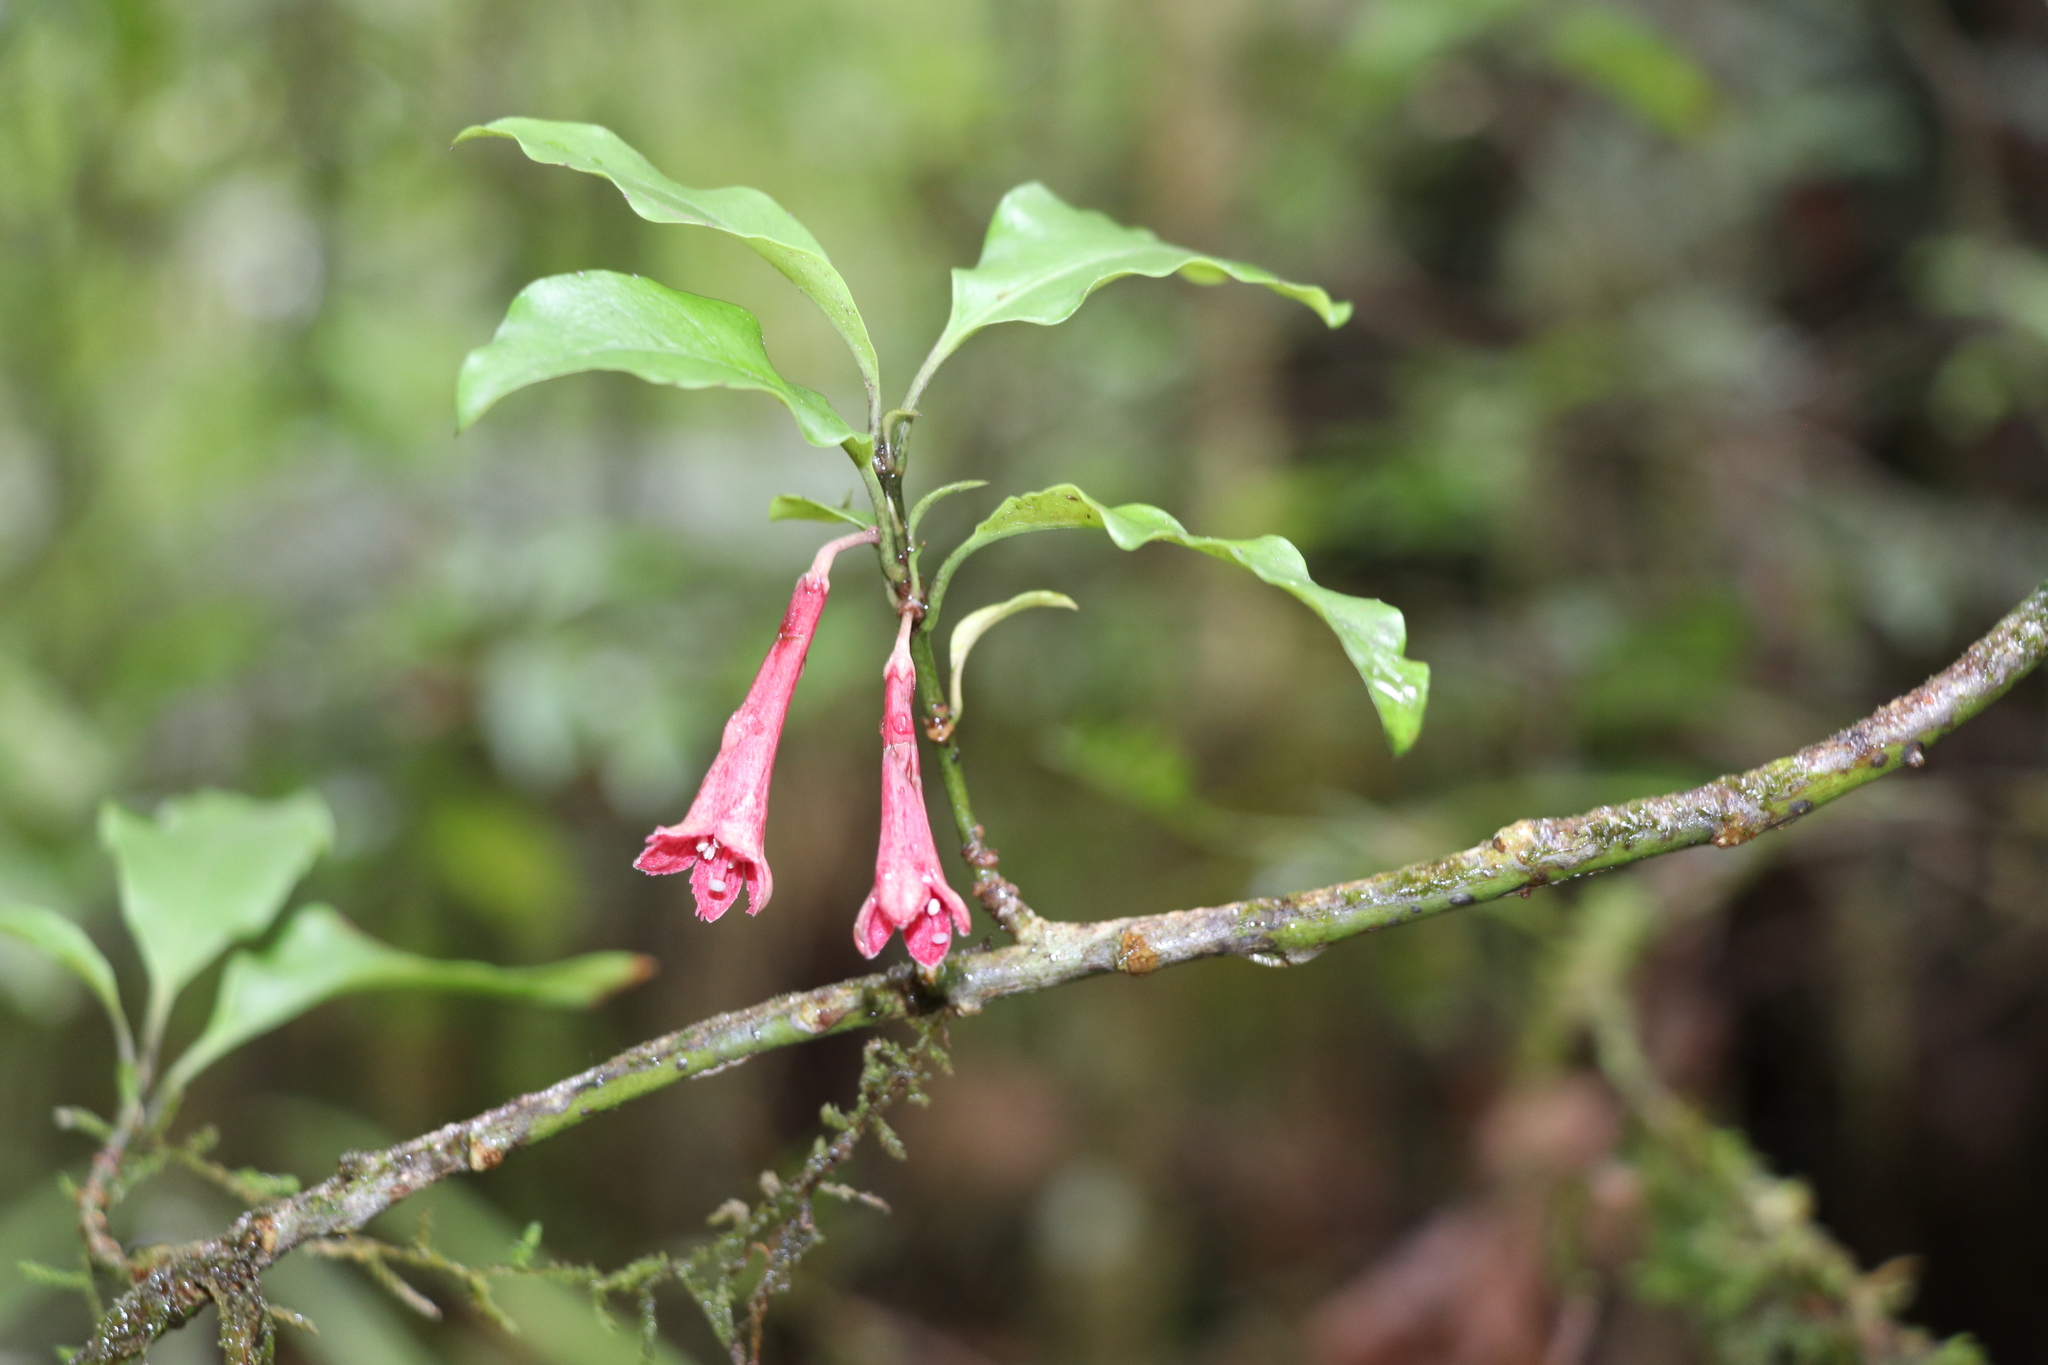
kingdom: Plantae
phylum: Tracheophyta
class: Magnoliopsida
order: Asterales
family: Alseuosmiaceae
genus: Alseuosmia
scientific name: Alseuosmia macrophylla
